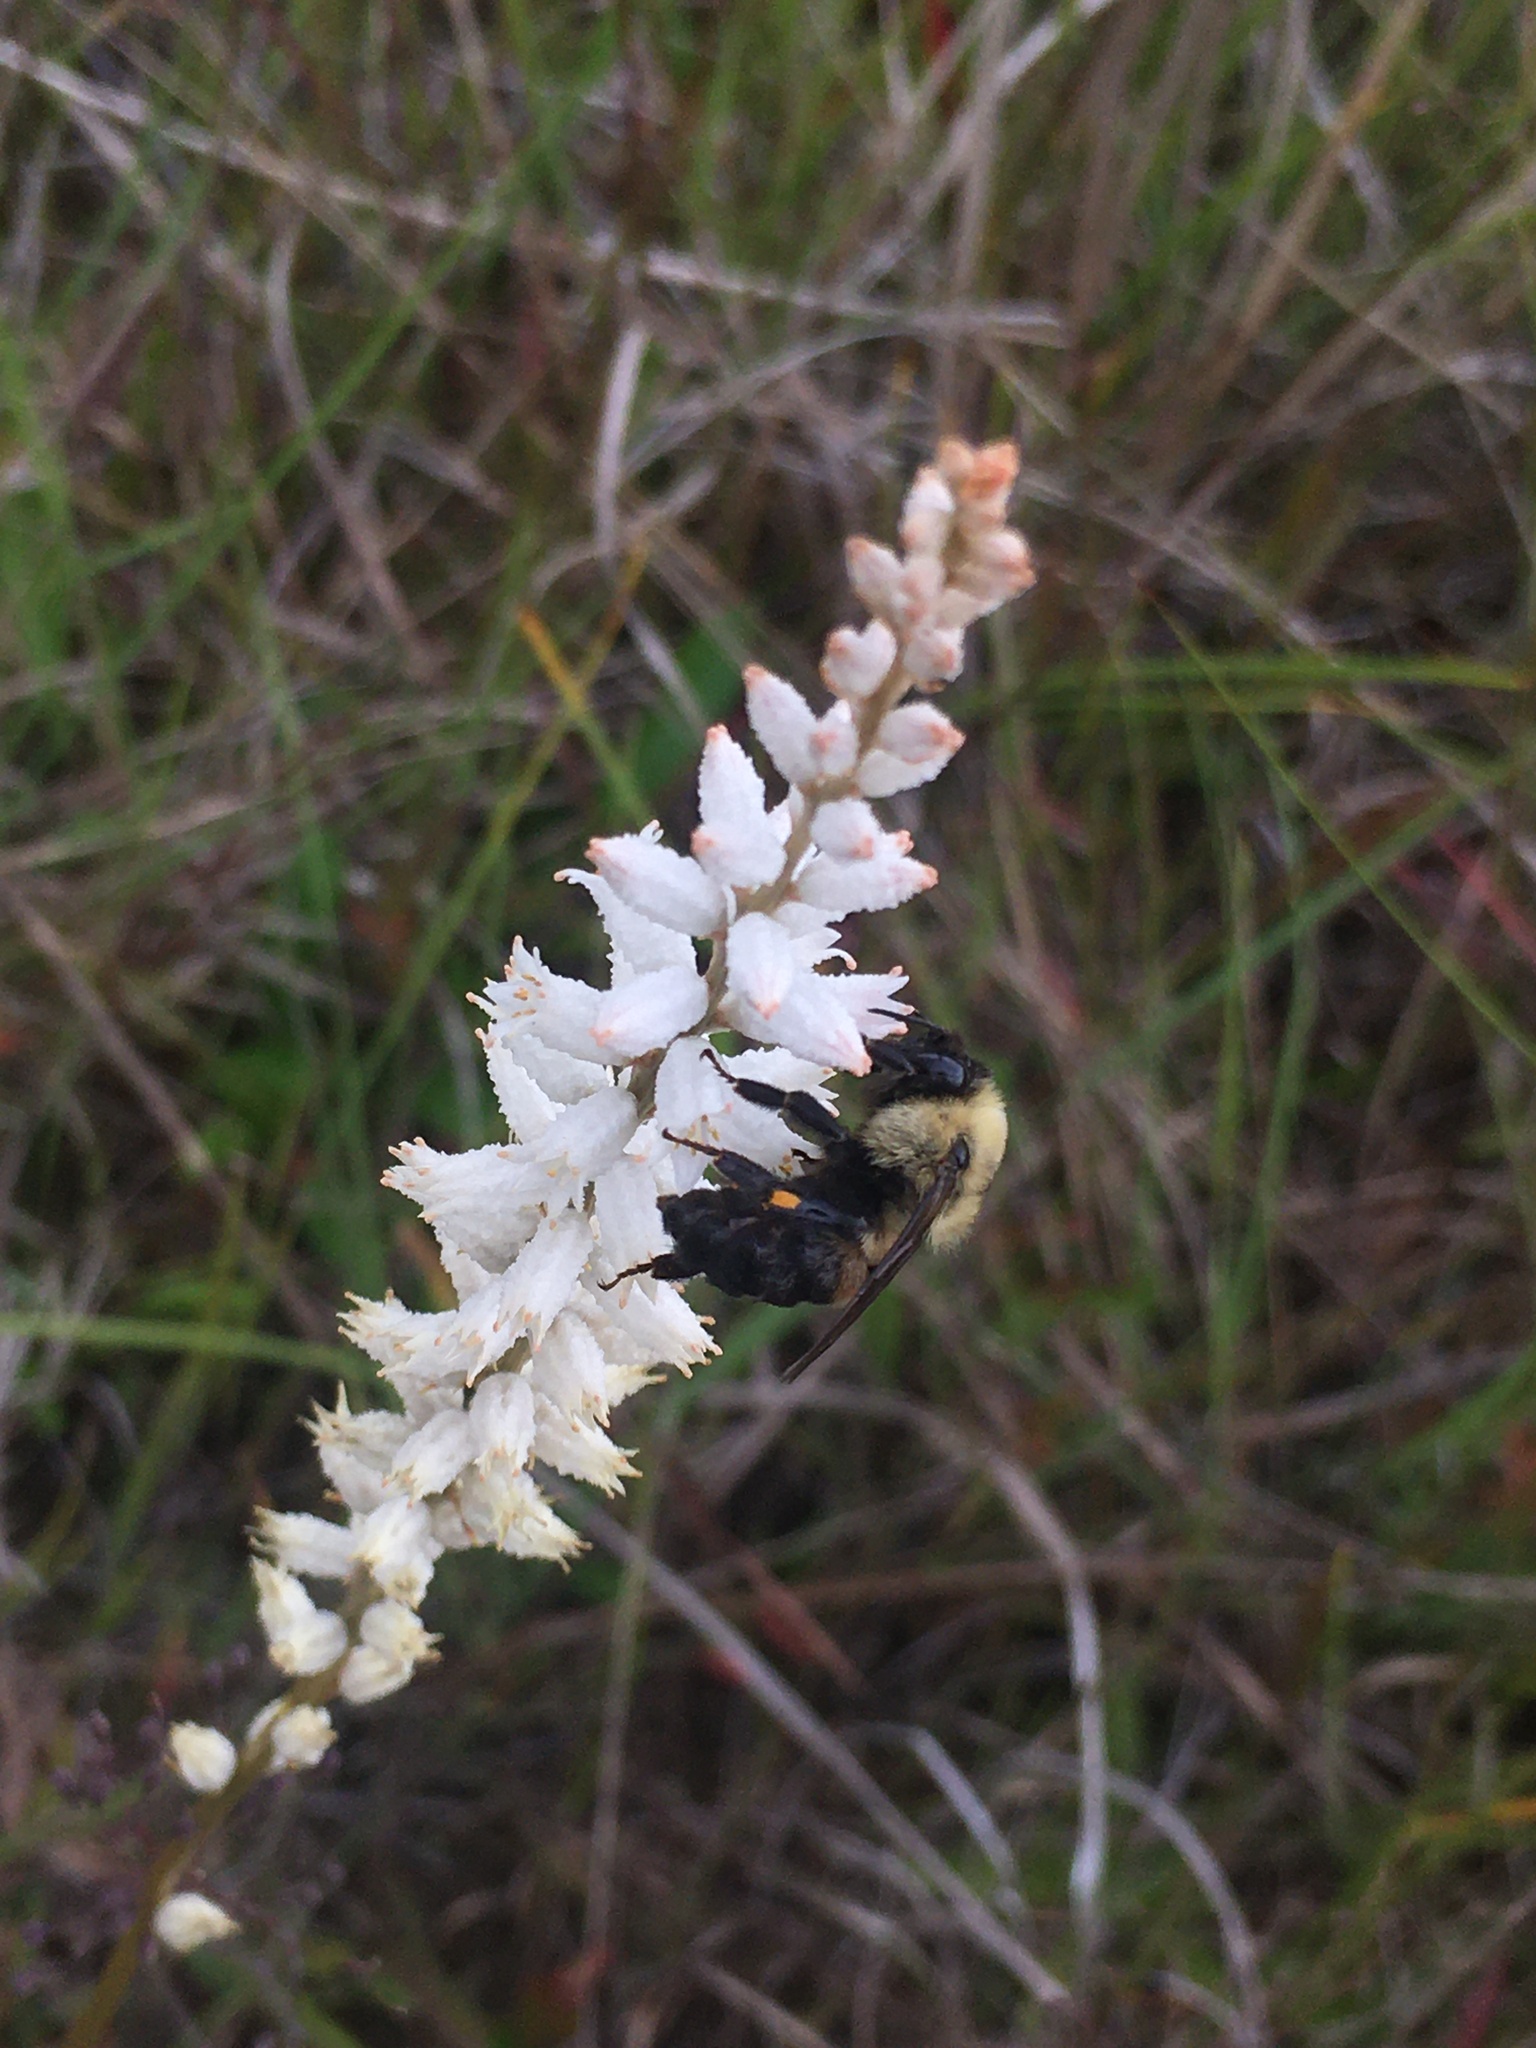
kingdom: Animalia
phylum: Arthropoda
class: Insecta
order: Hymenoptera
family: Apidae
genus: Bombus
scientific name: Bombus griseocollis
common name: Brown-belted bumble bee
